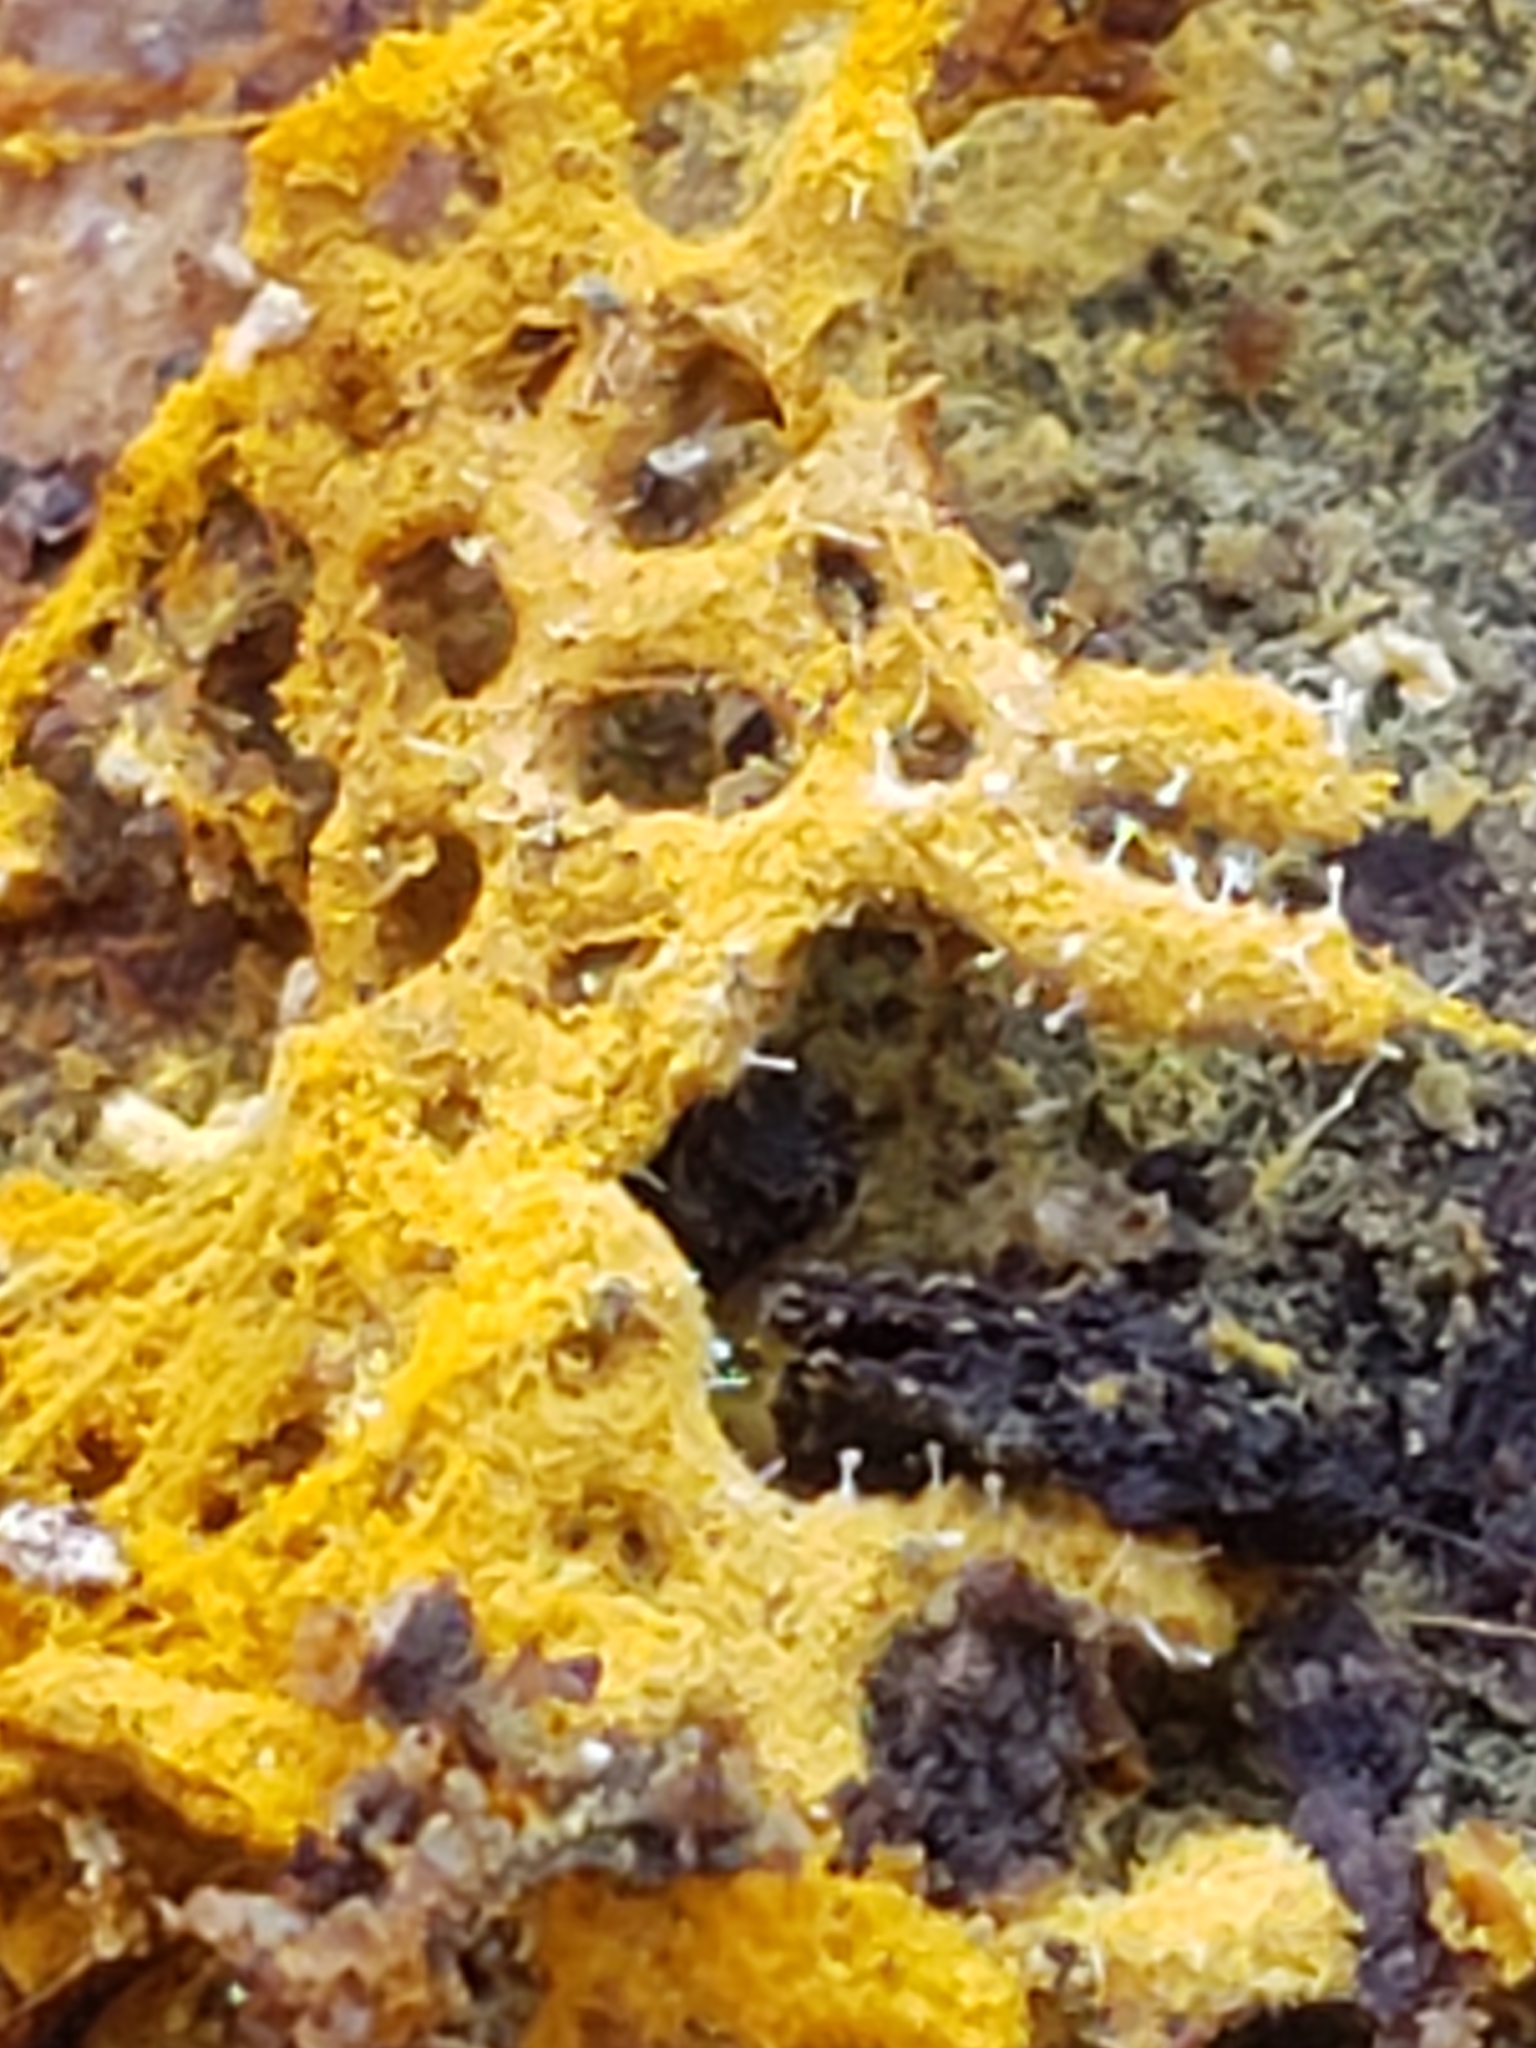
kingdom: Fungi
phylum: Ascomycota
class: Sordariomycetes
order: Hypocreales
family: Ophiocordycipitaceae
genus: Polycephalomyces
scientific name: Polycephalomyces tomentosus
